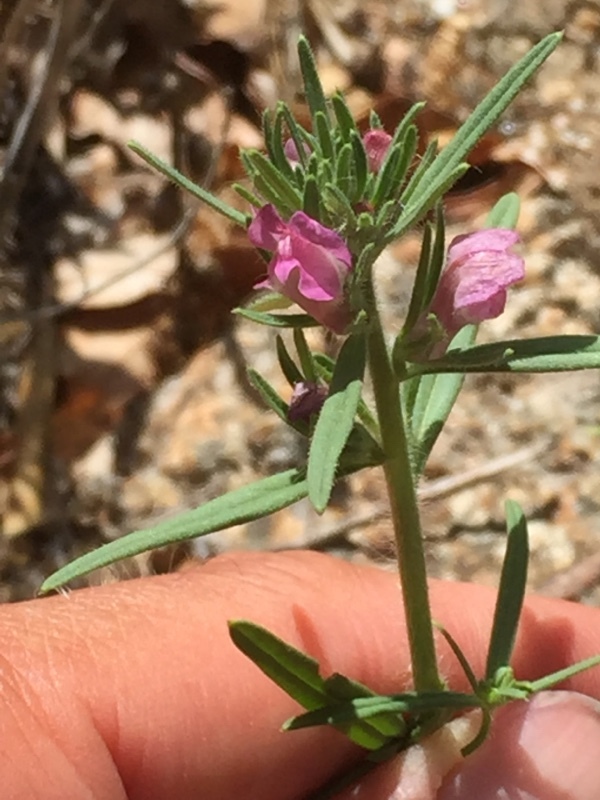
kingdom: Plantae
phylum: Tracheophyta
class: Magnoliopsida
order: Lamiales
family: Plantaginaceae
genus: Misopates
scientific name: Misopates orontium
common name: Weasel's-snout
